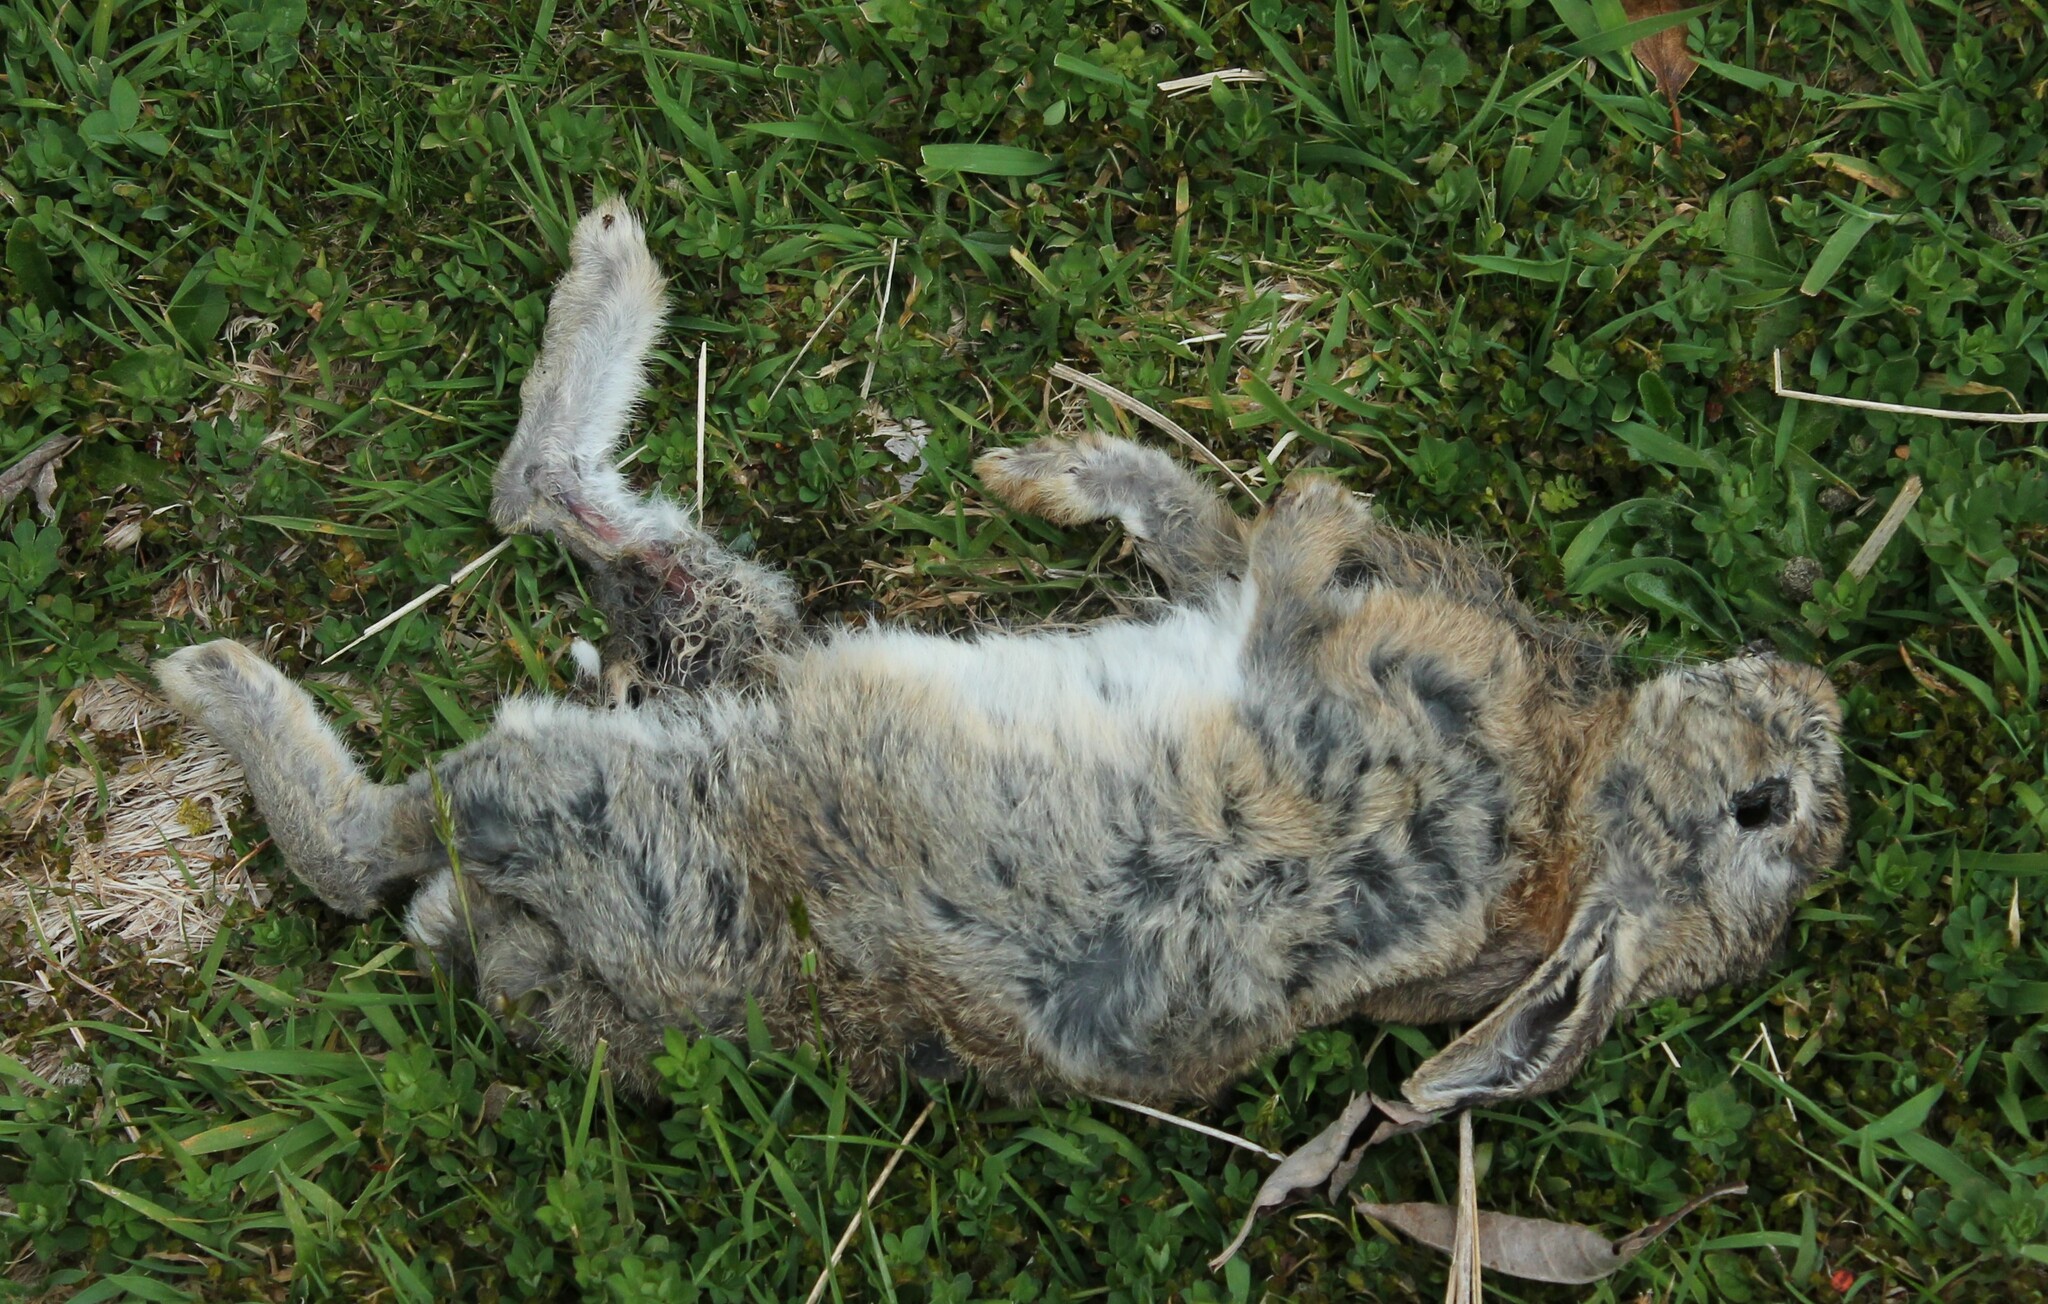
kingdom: Animalia
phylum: Chordata
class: Mammalia
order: Lagomorpha
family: Leporidae
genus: Oryctolagus
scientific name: Oryctolagus cuniculus
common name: European rabbit
